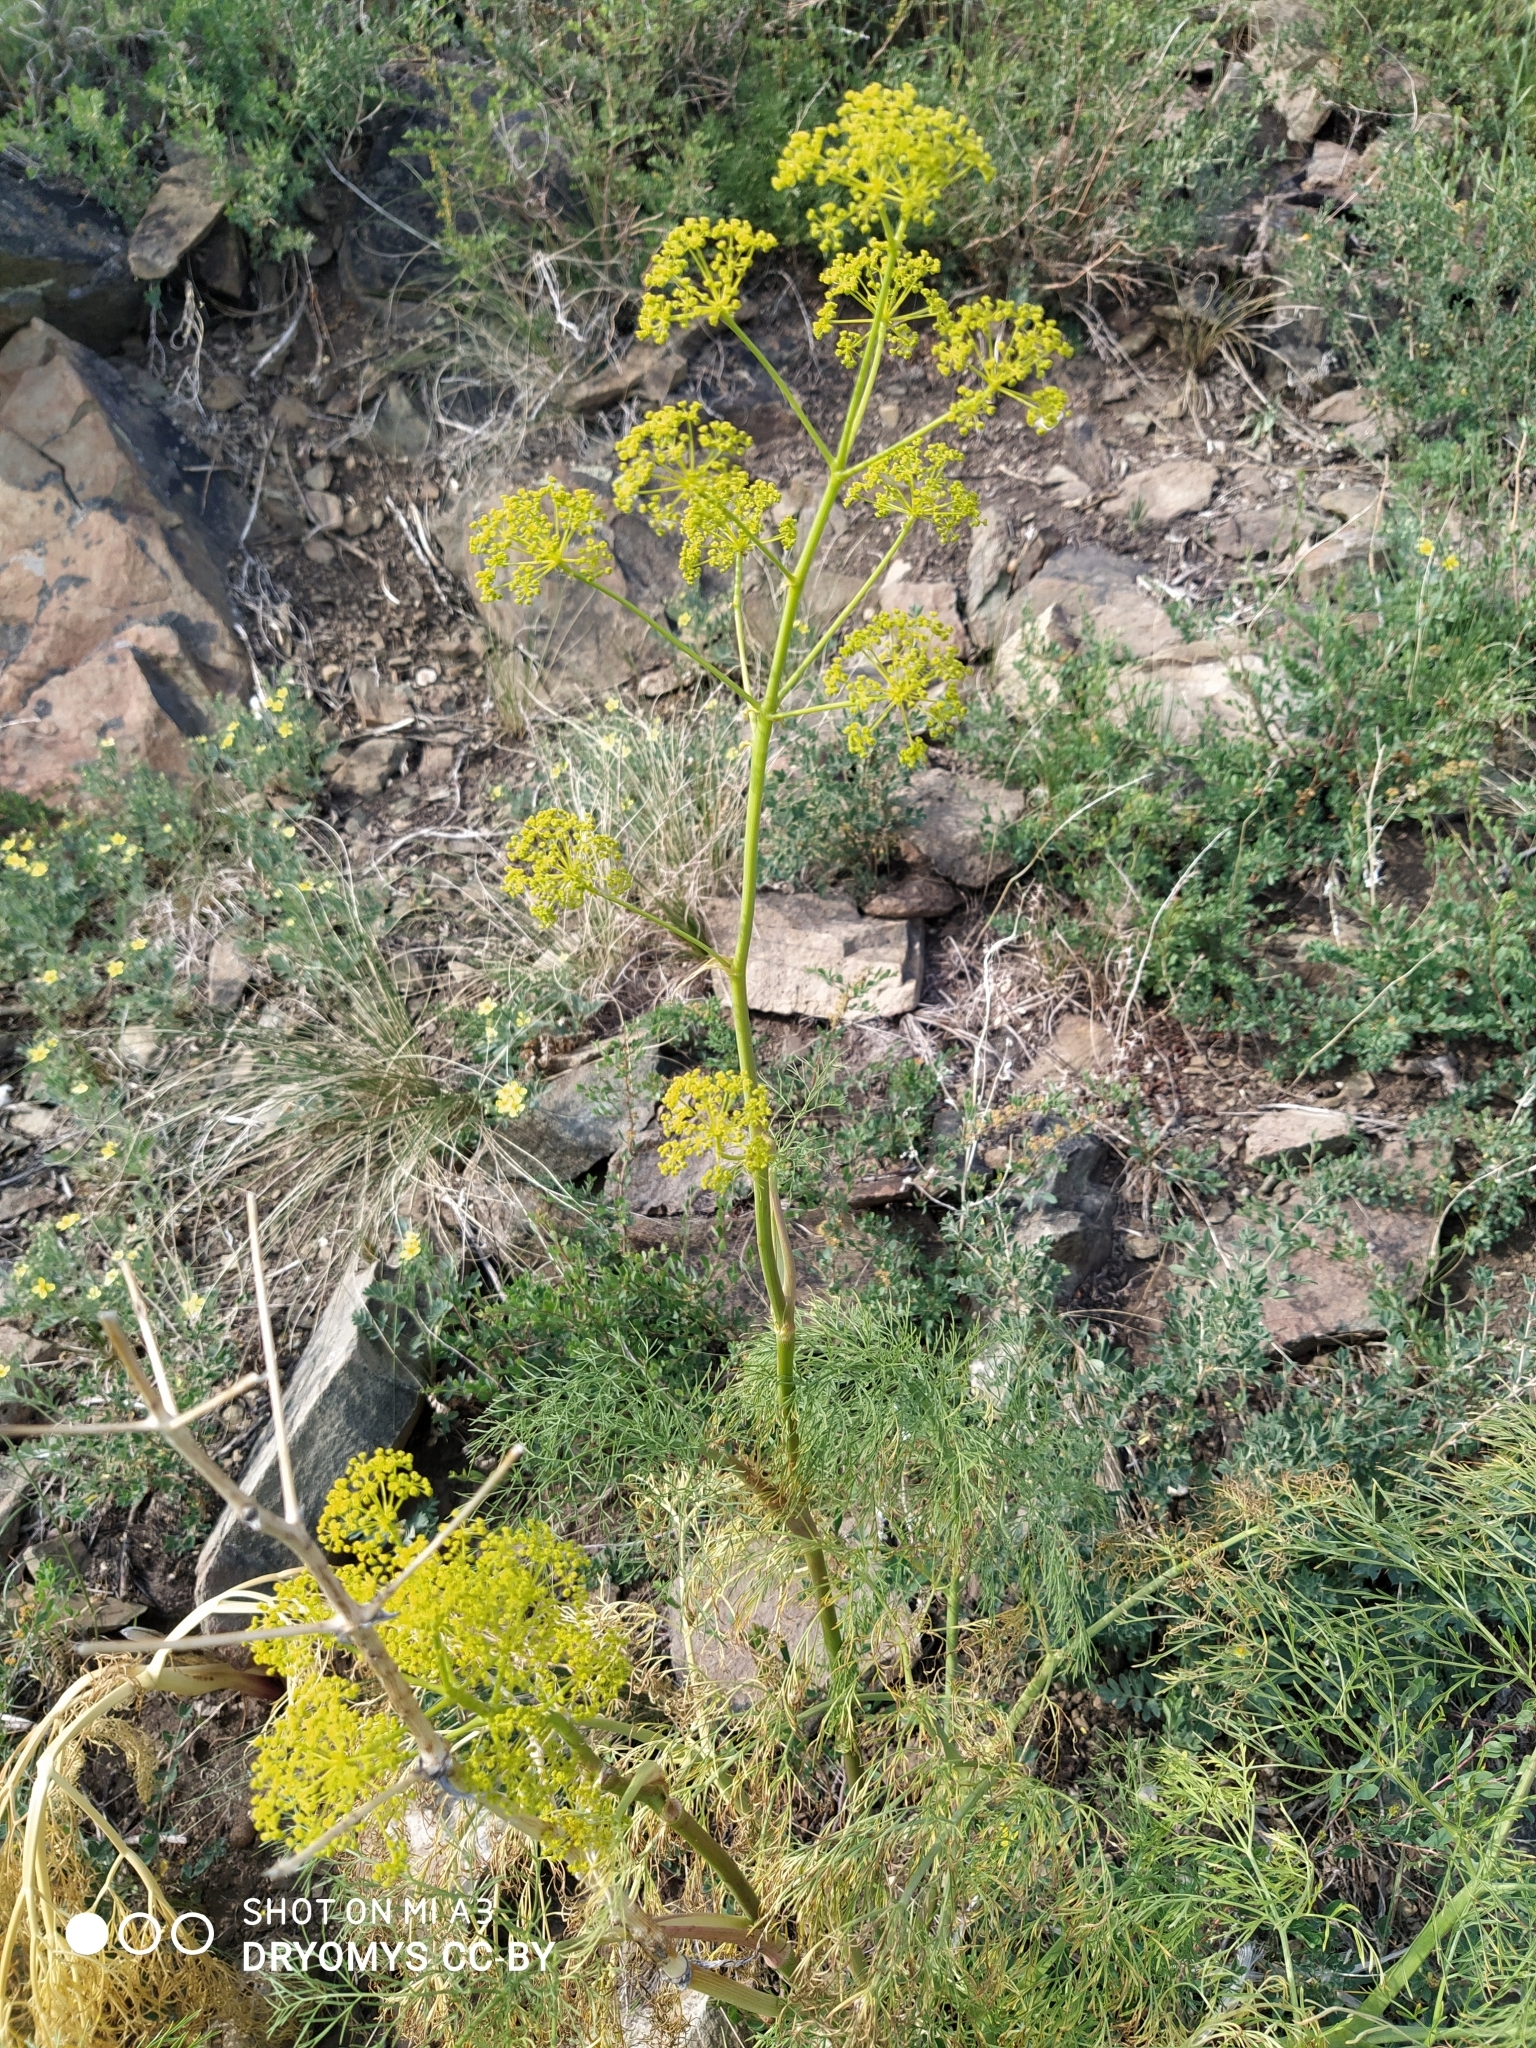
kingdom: Plantae
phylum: Tracheophyta
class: Magnoliopsida
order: Apiales
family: Apiaceae
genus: Ferula
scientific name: Ferula songarica
